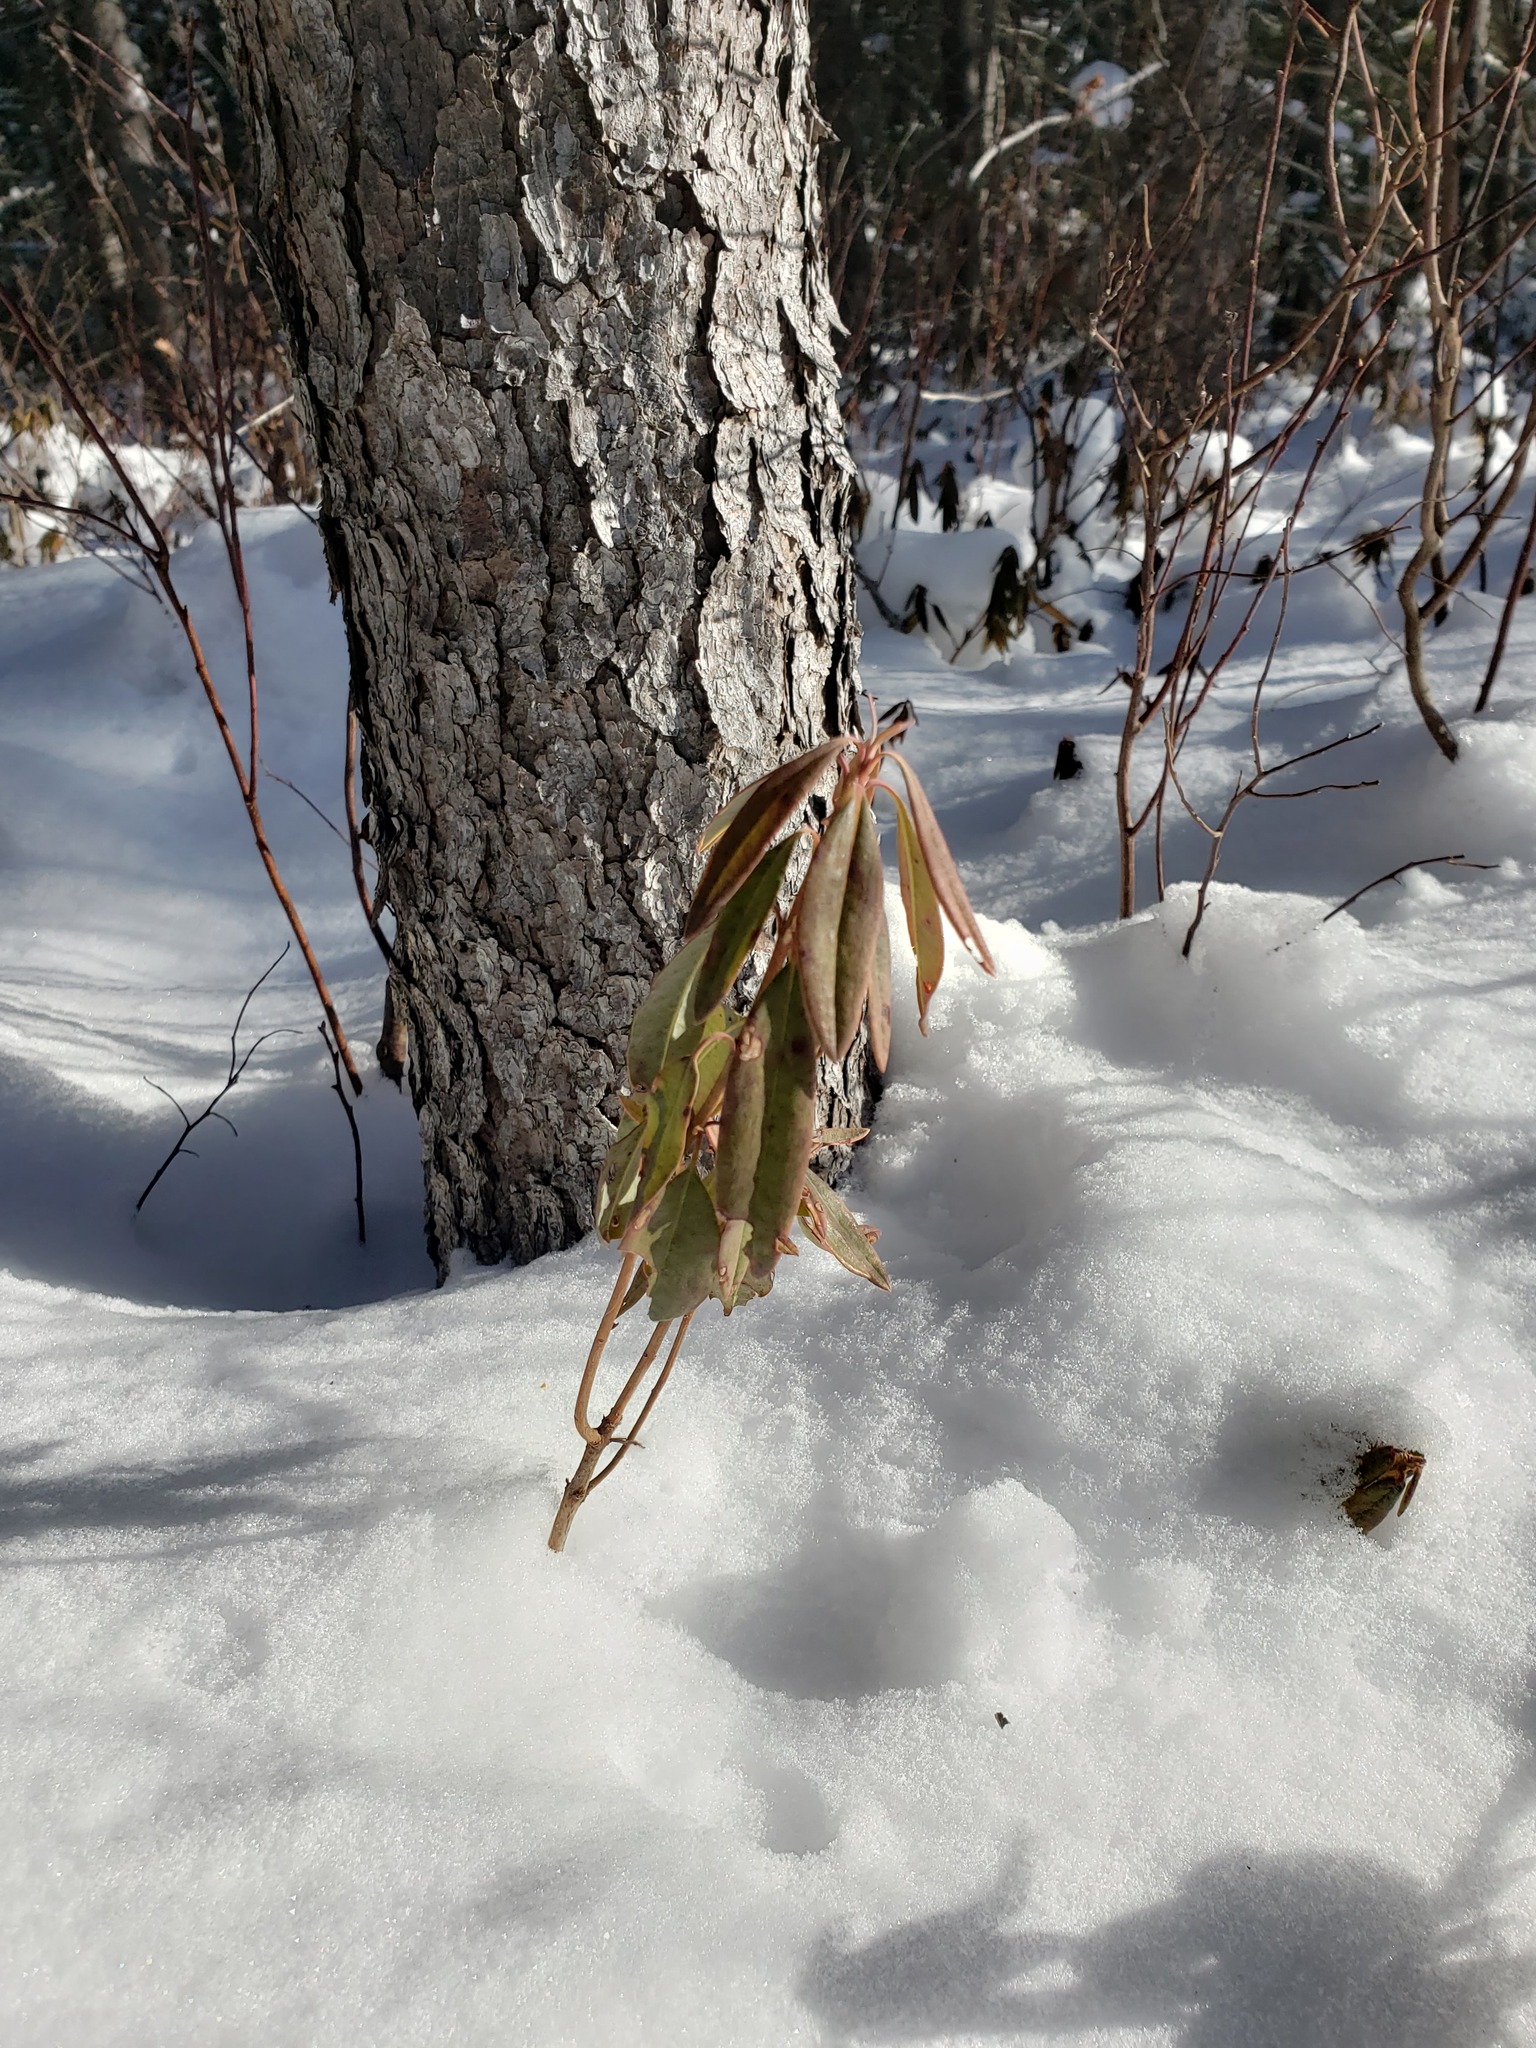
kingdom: Plantae
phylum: Tracheophyta
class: Magnoliopsida
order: Ericales
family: Ericaceae
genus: Kalmia
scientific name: Kalmia angustifolia
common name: Sheep-laurel
